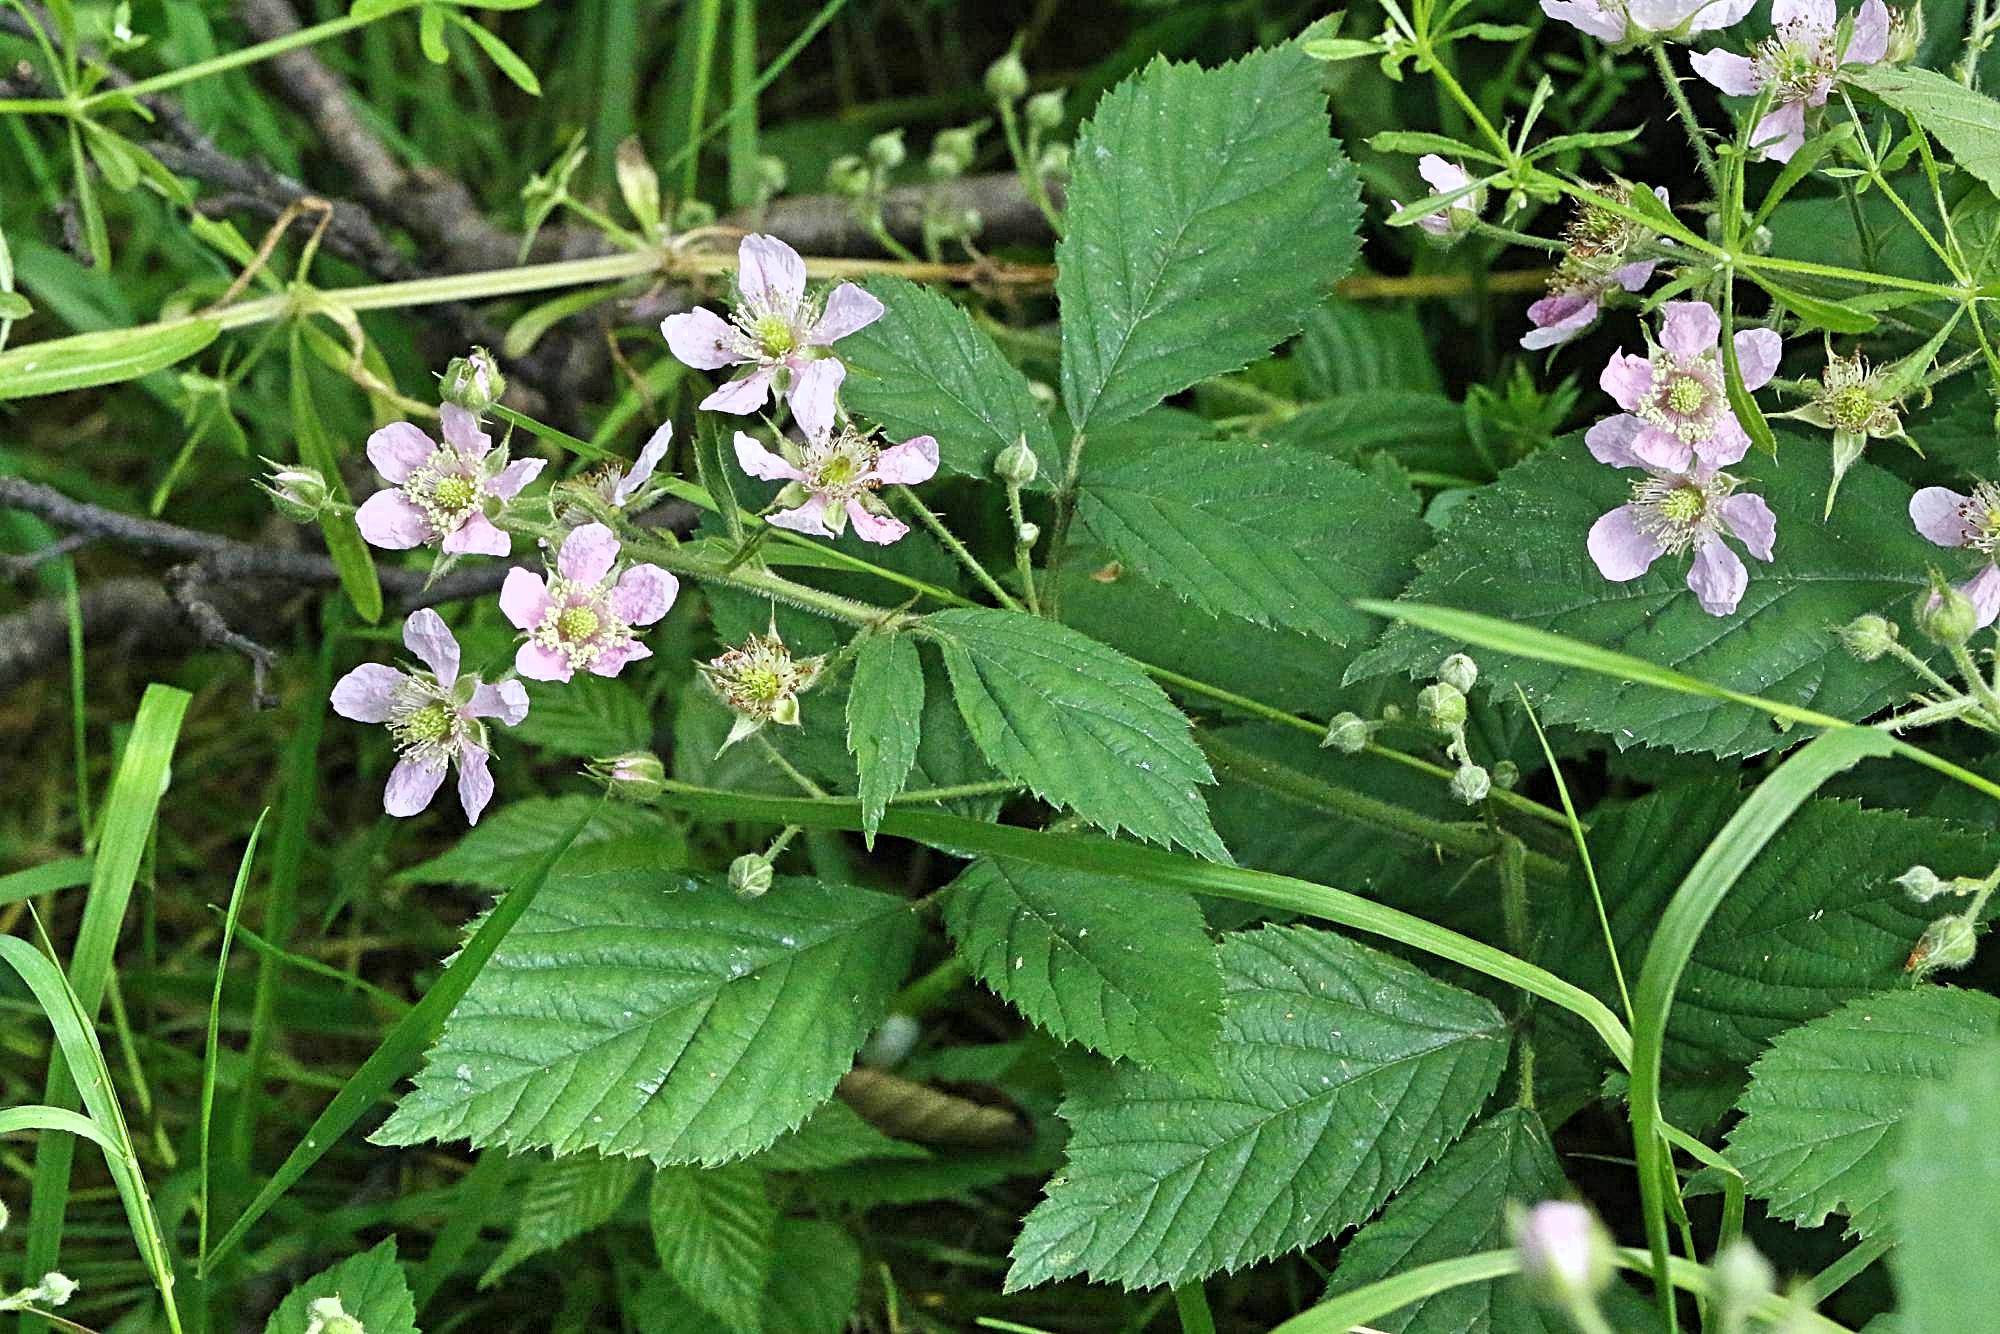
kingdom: Plantae
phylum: Tracheophyta
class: Magnoliopsida
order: Rosales
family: Rosaceae
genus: Rubus
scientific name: Rubus sprengelii
